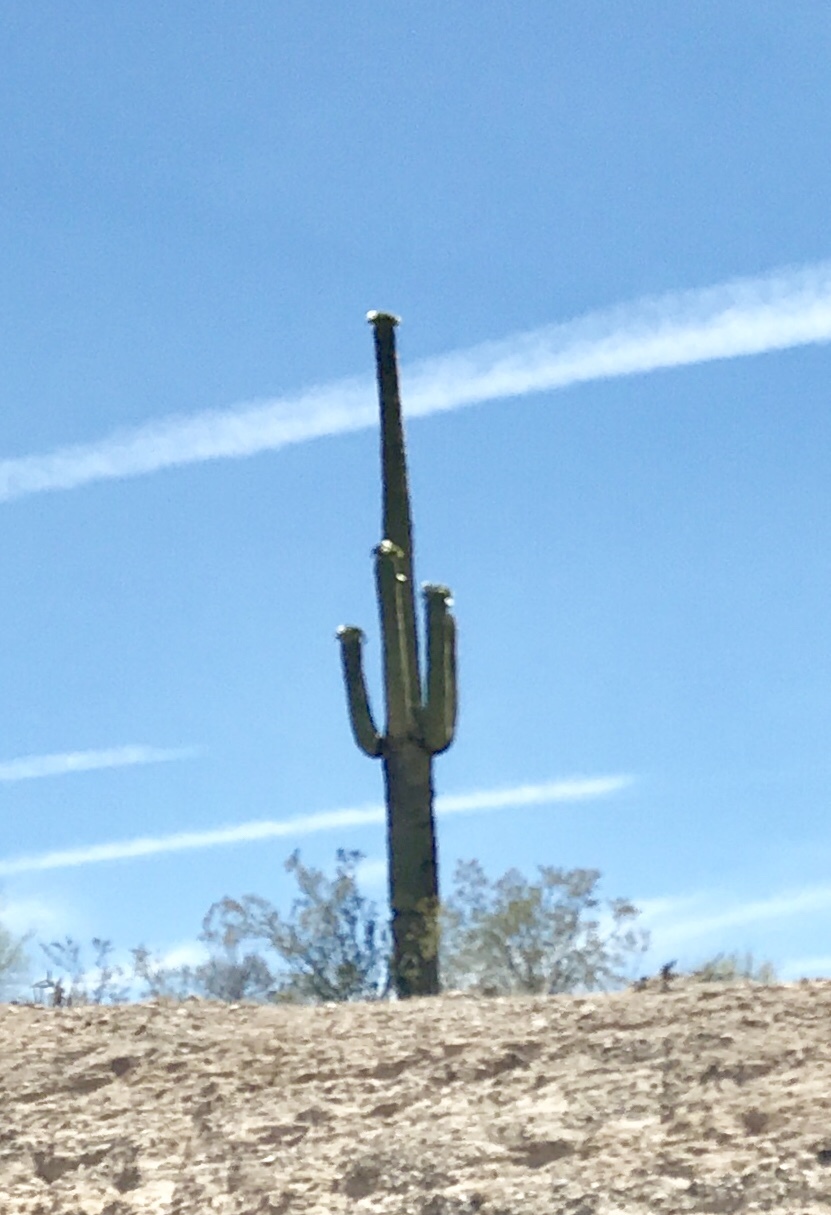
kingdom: Plantae
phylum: Tracheophyta
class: Magnoliopsida
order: Caryophyllales
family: Cactaceae
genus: Carnegiea
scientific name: Carnegiea gigantea
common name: Saguaro
